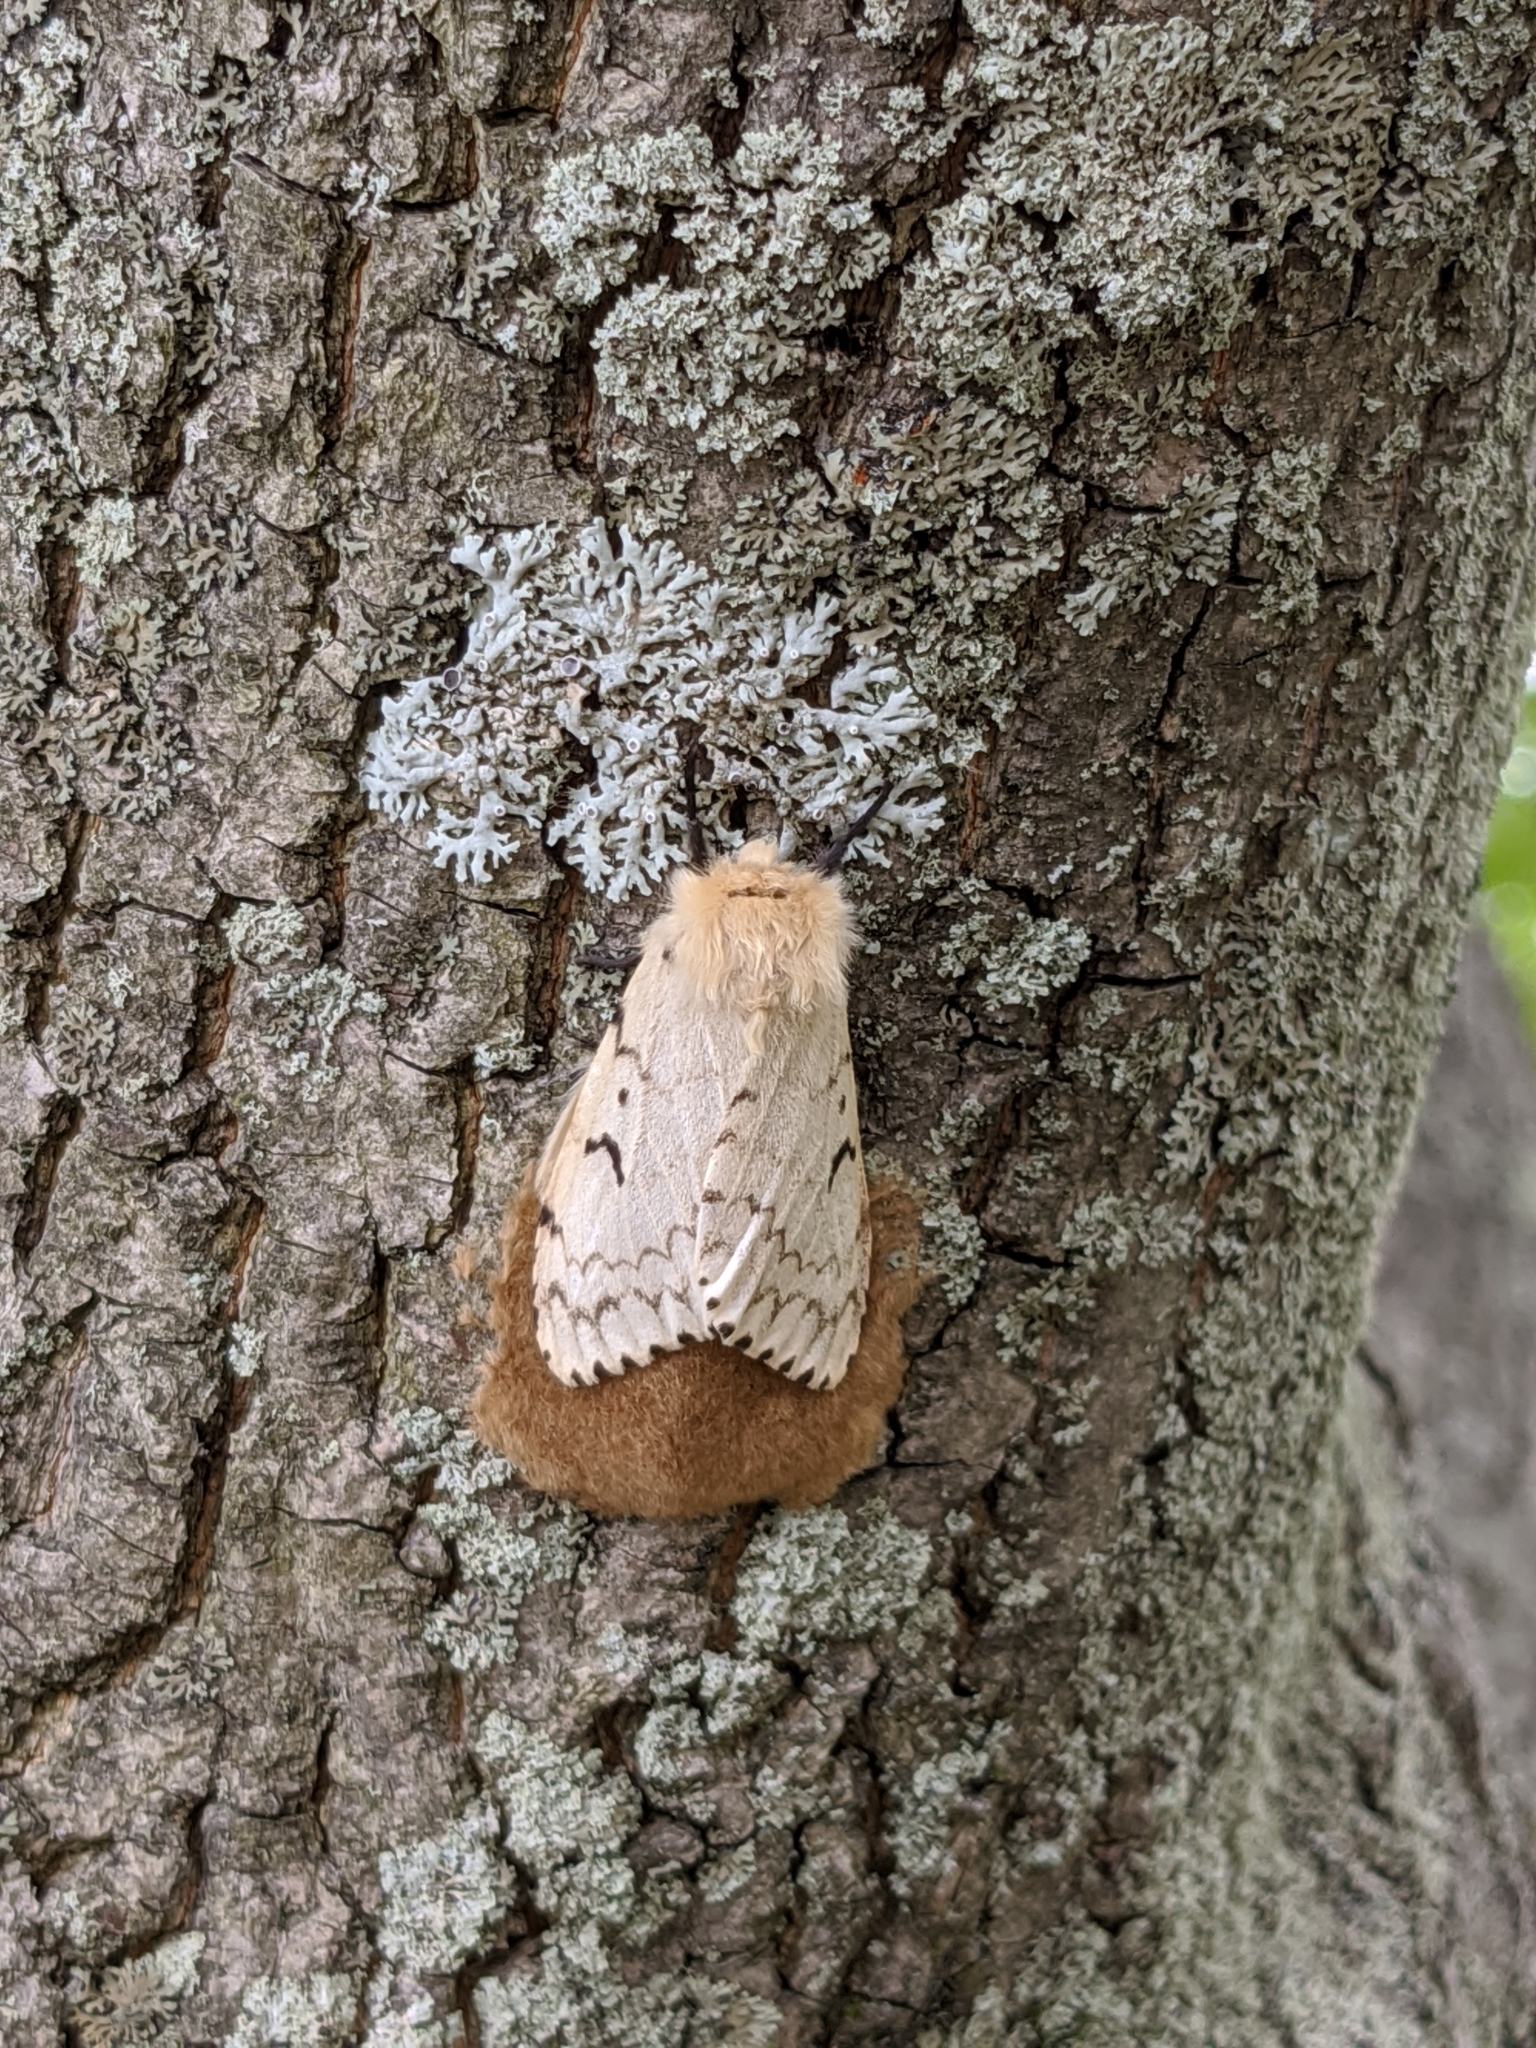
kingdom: Animalia
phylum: Arthropoda
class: Insecta
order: Lepidoptera
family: Erebidae
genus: Lymantria
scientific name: Lymantria dispar
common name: Gypsy moth
